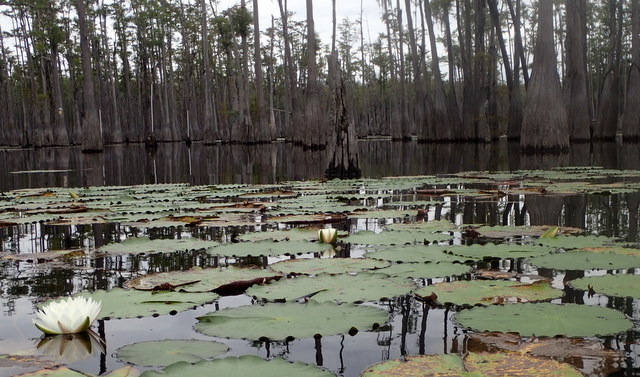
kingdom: Plantae
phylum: Tracheophyta
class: Magnoliopsida
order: Nymphaeales
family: Nymphaeaceae
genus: Nymphaea
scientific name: Nymphaea odorata
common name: Fragrant water-lily
